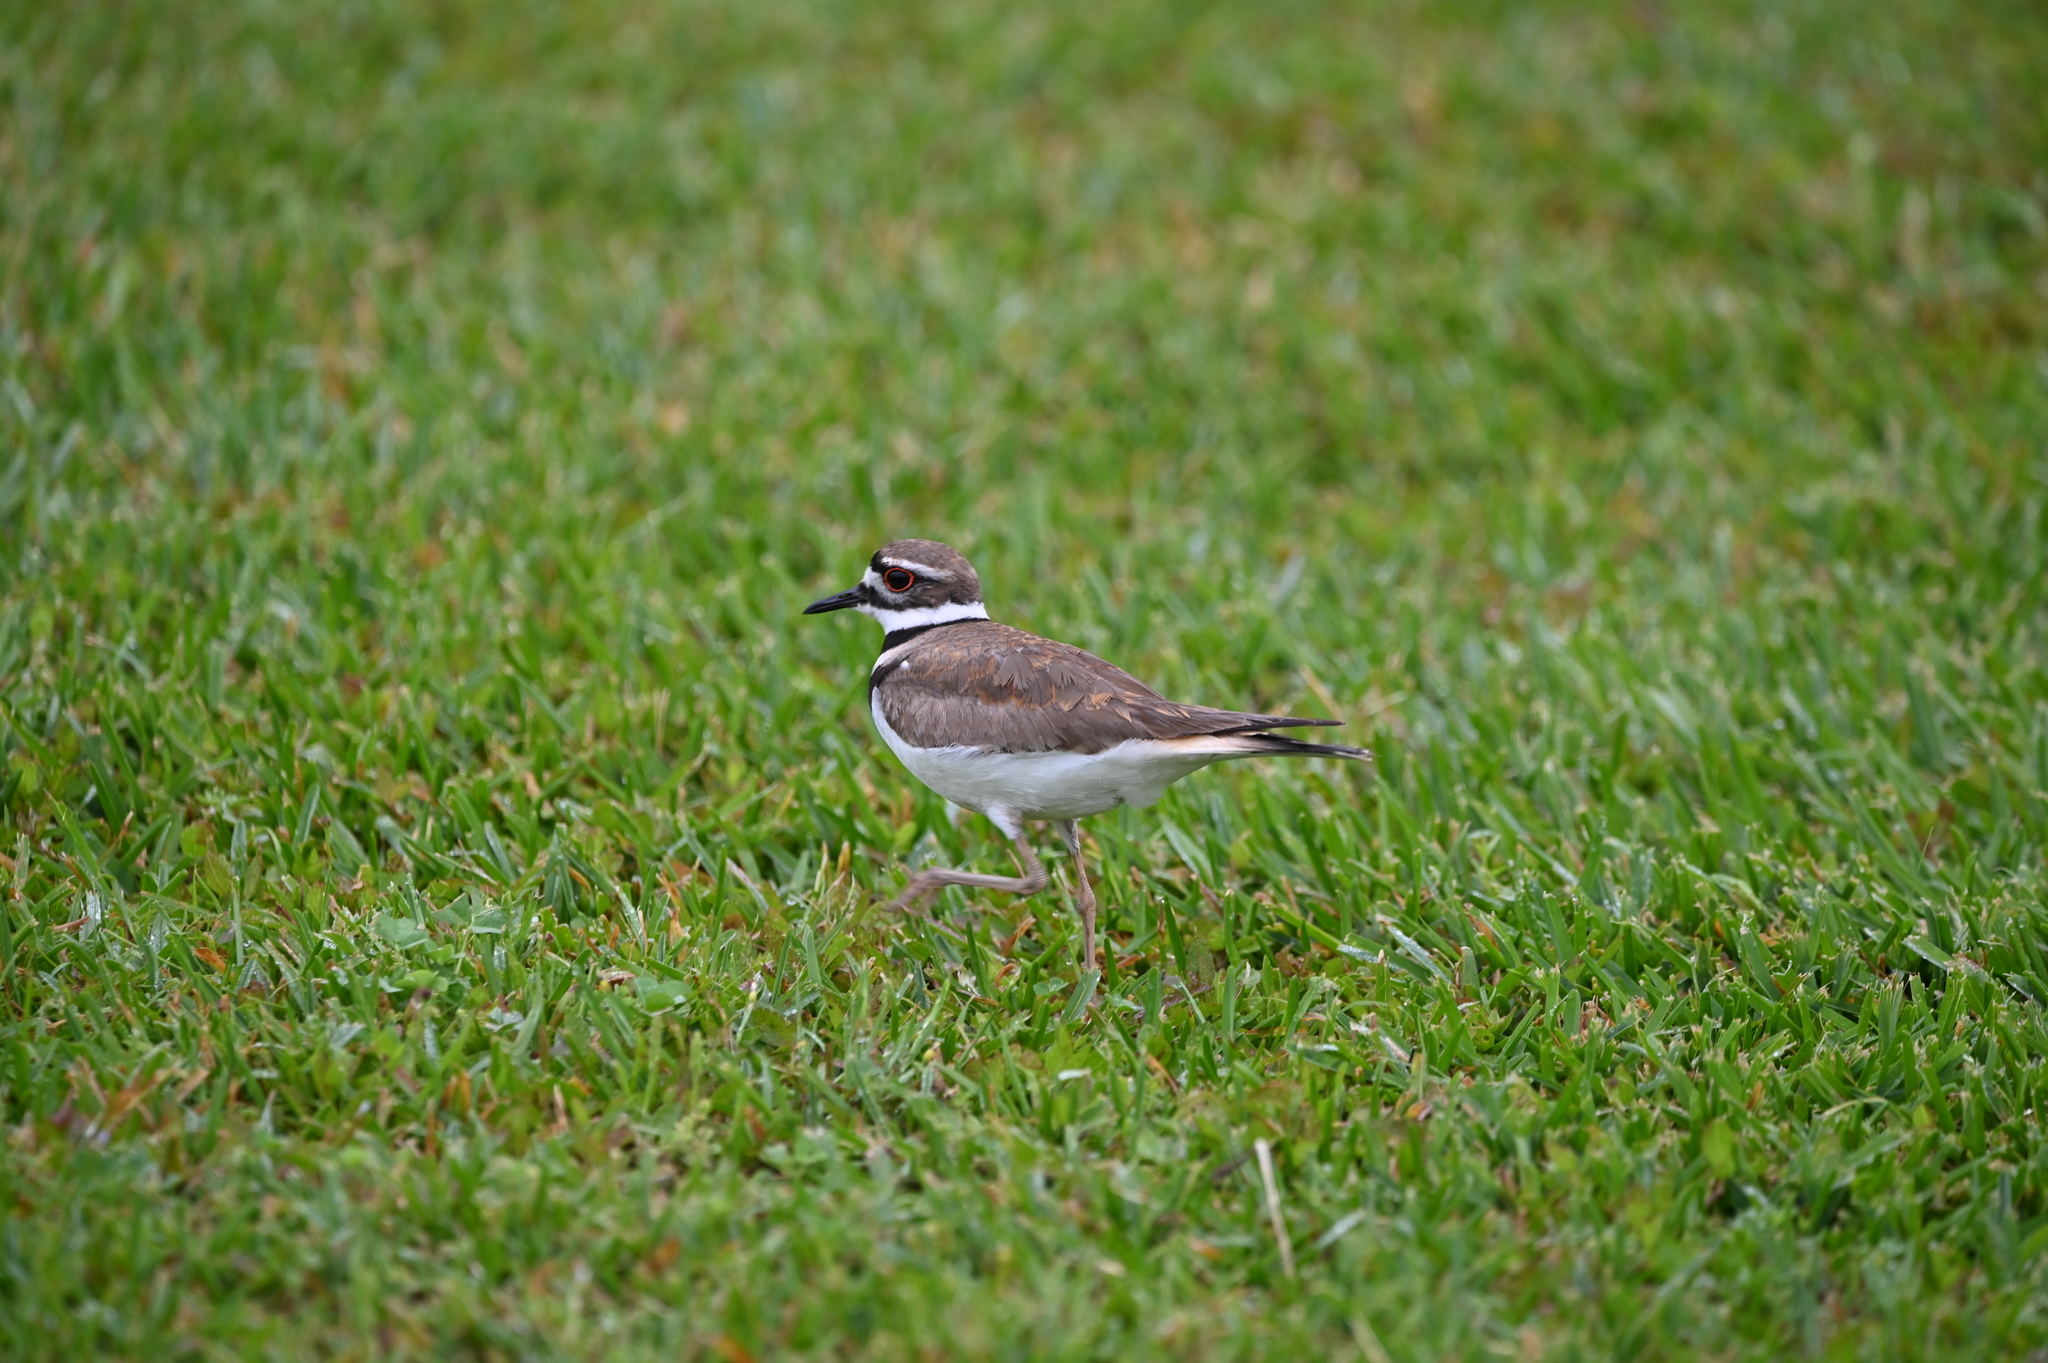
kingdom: Animalia
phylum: Chordata
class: Aves
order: Charadriiformes
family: Charadriidae
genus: Charadrius
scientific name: Charadrius vociferus
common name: Killdeer
